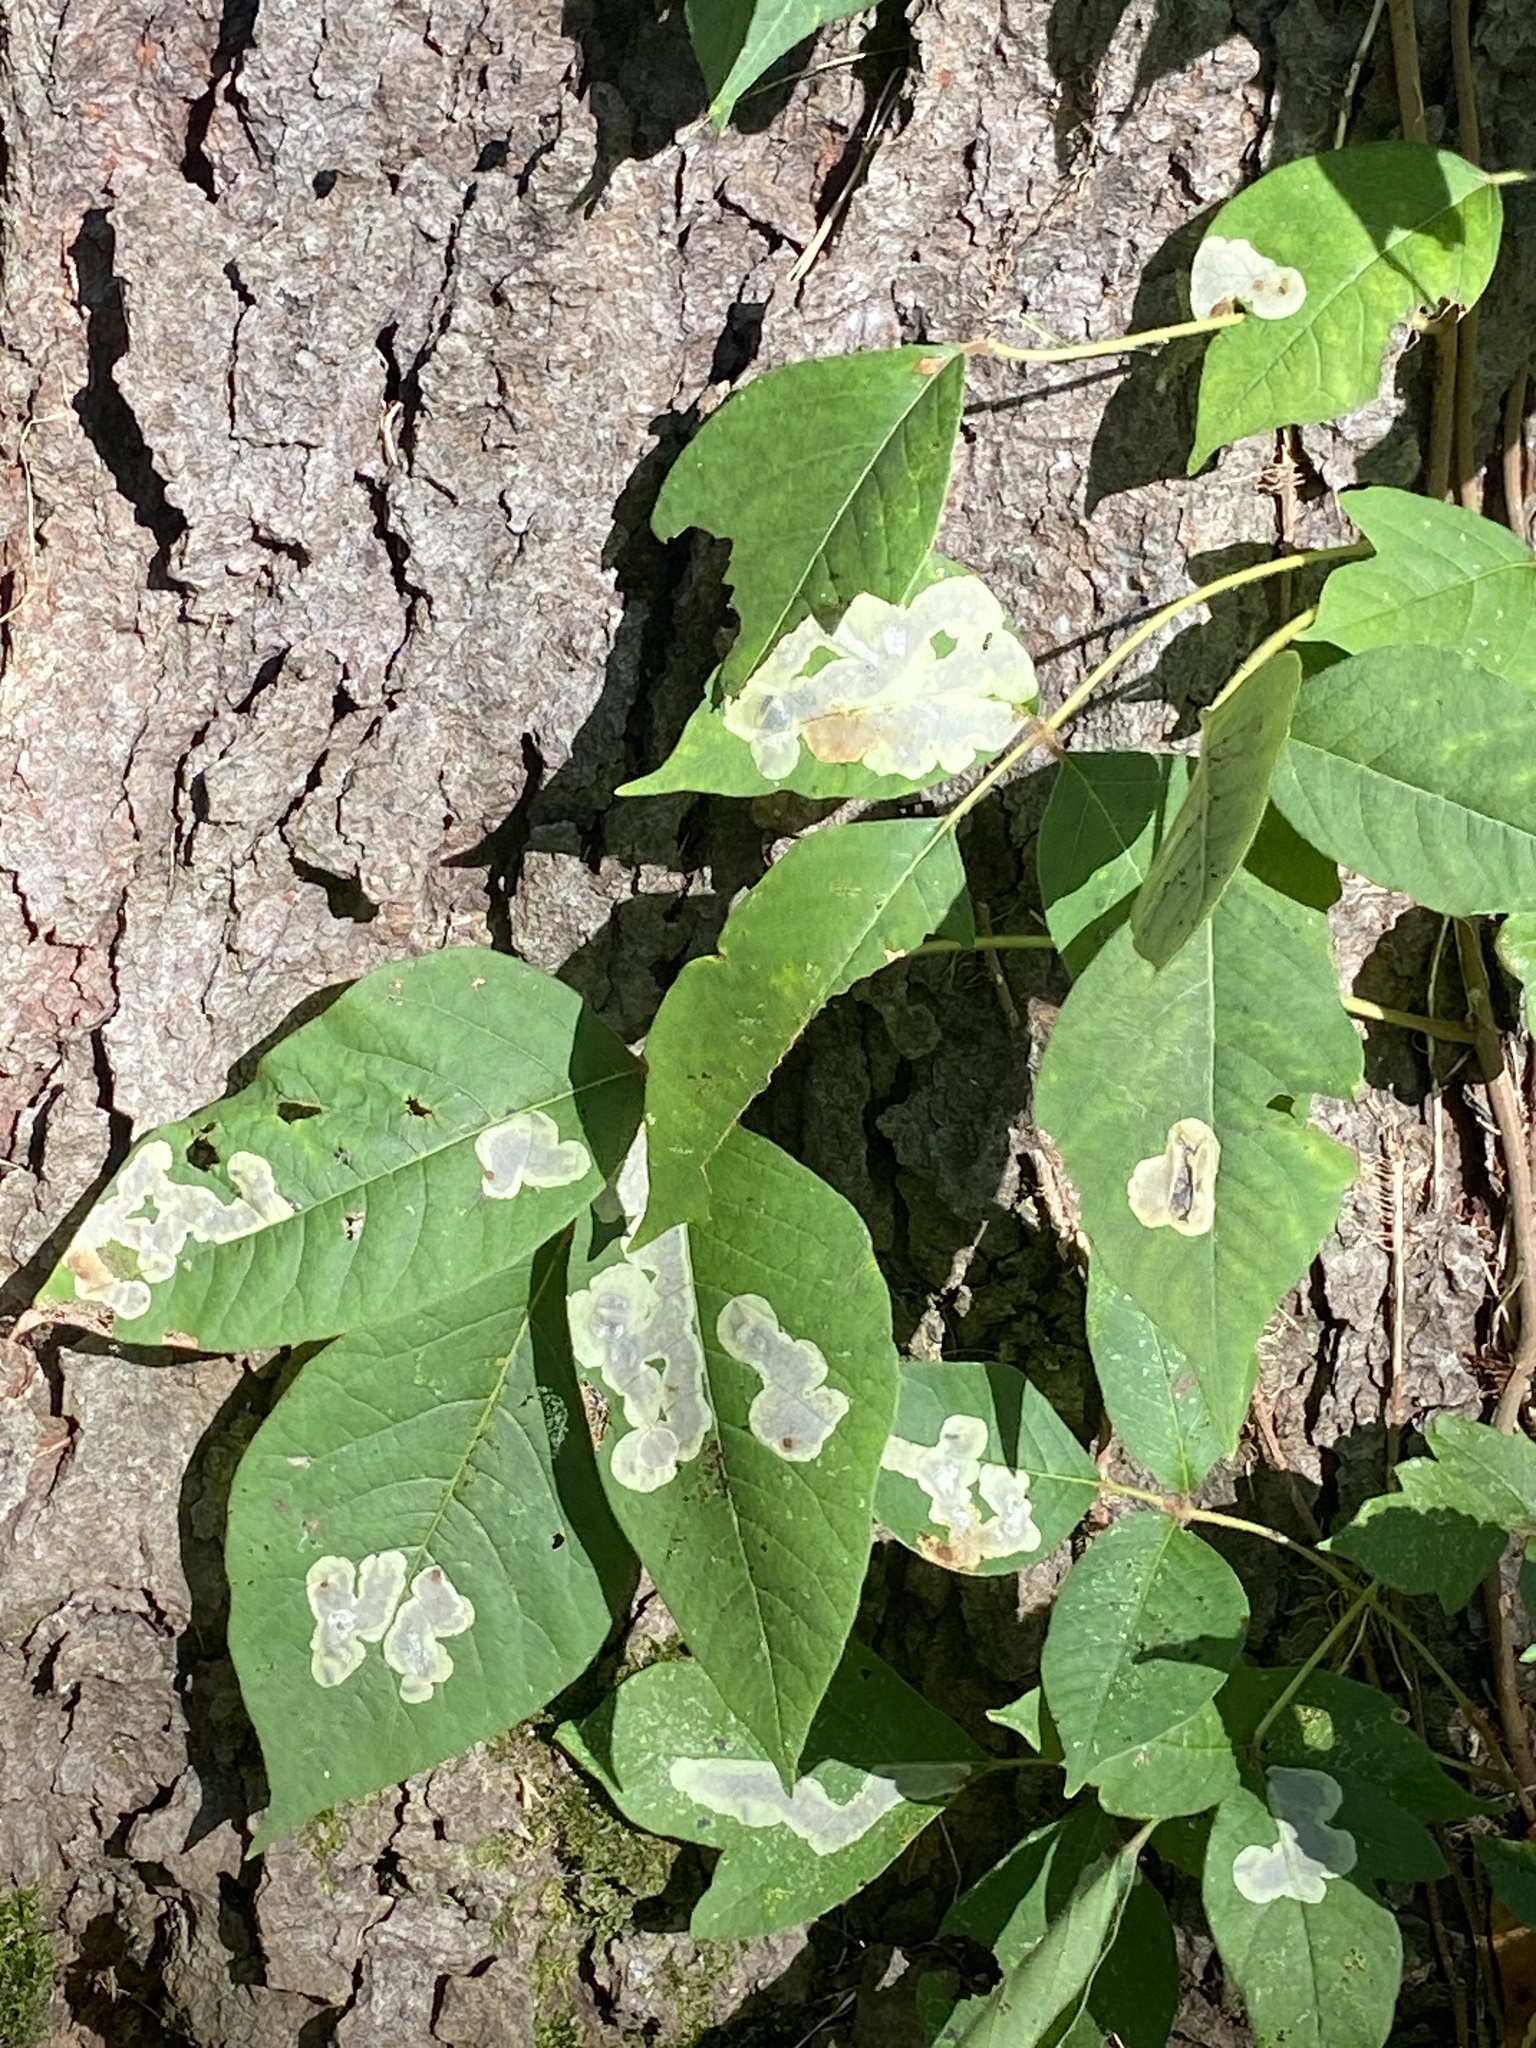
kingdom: Animalia
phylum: Arthropoda
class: Insecta
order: Lepidoptera
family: Gracillariidae
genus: Cameraria
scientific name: Cameraria guttifinitella
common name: Poison ivy leaf-miner moth
